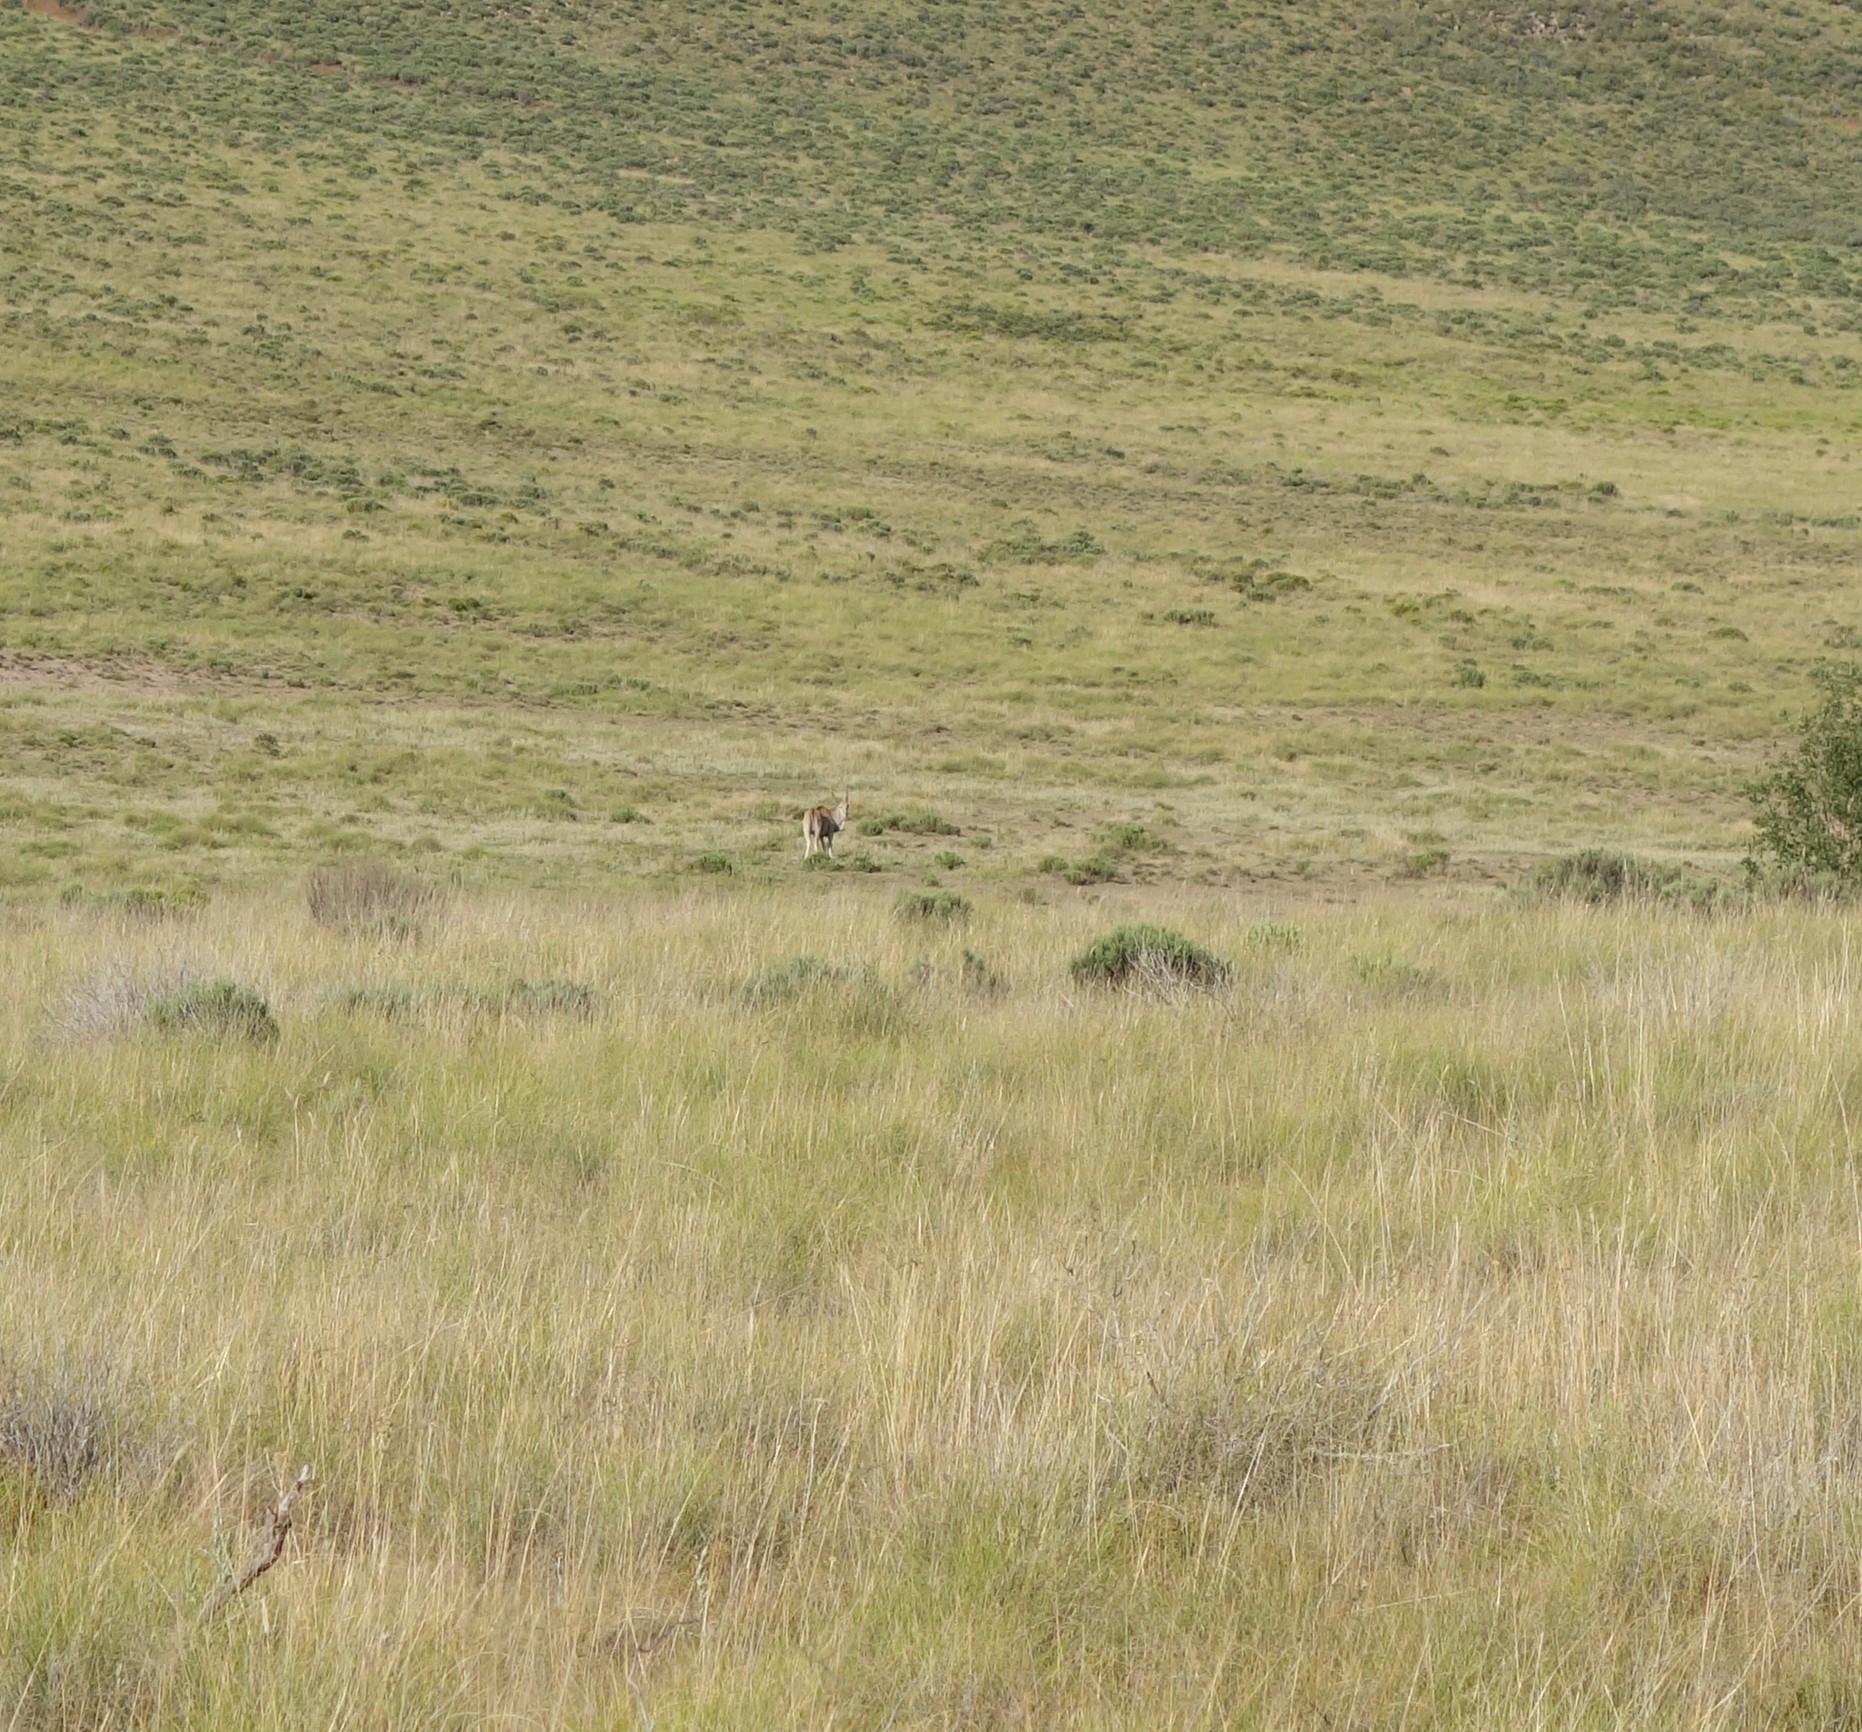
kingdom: Animalia
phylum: Chordata
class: Mammalia
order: Artiodactyla
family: Bovidae
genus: Taurotragus
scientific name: Taurotragus oryx
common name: Common eland
